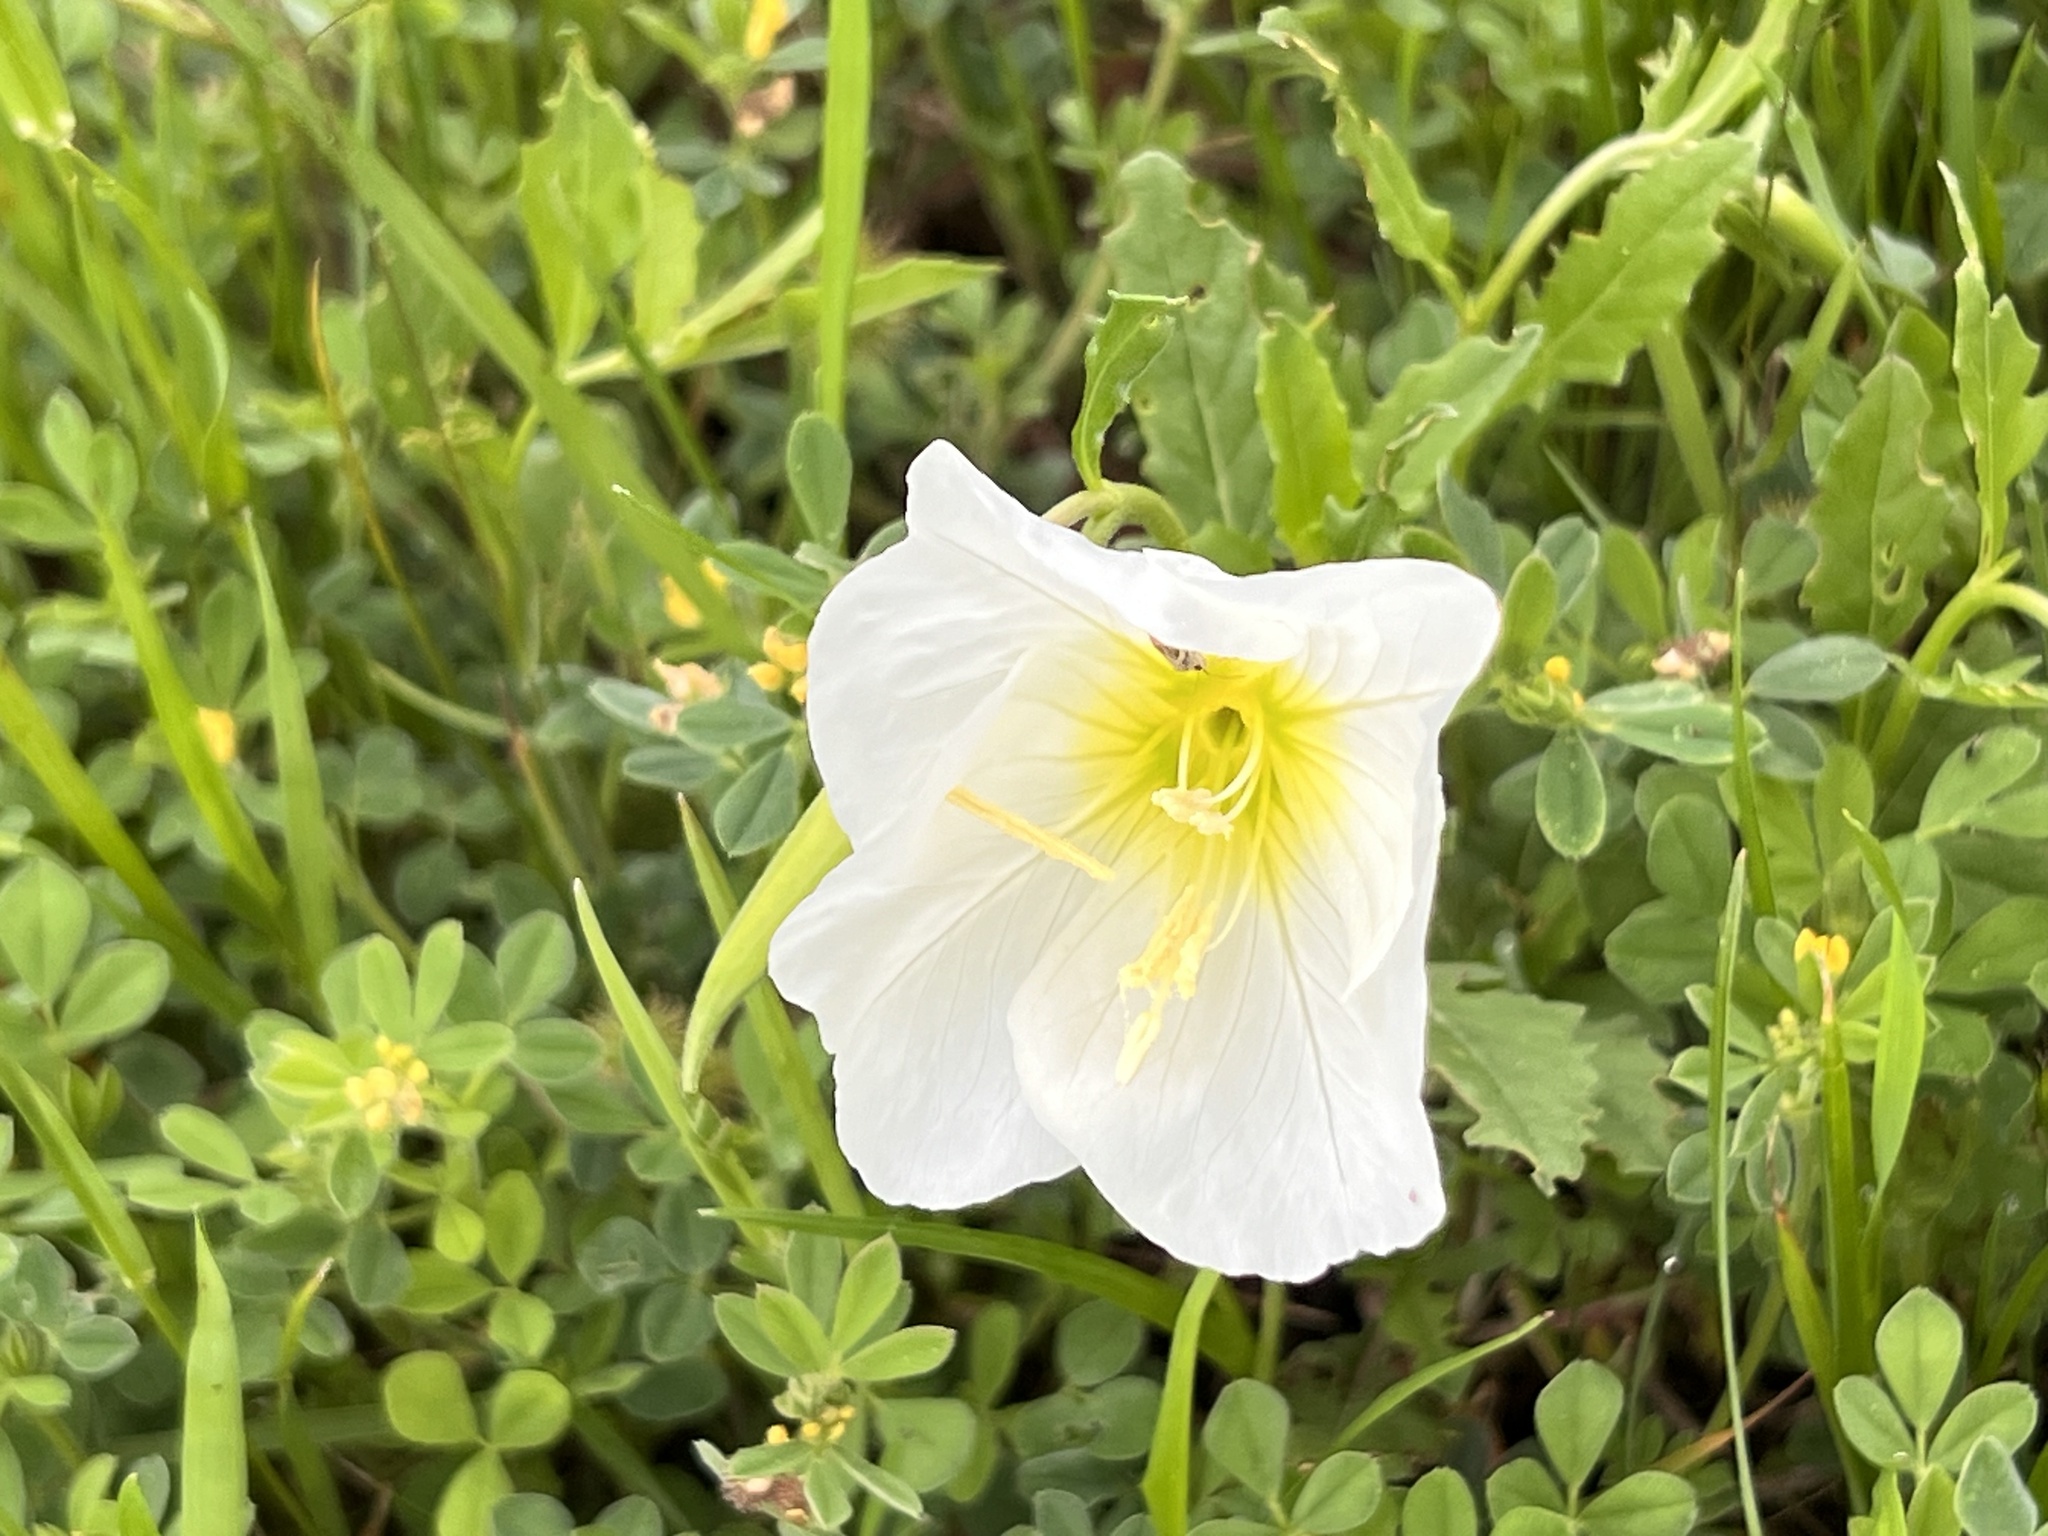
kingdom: Plantae
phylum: Tracheophyta
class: Magnoliopsida
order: Myrtales
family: Onagraceae
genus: Oenothera
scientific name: Oenothera speciosa
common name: White evening-primrose
